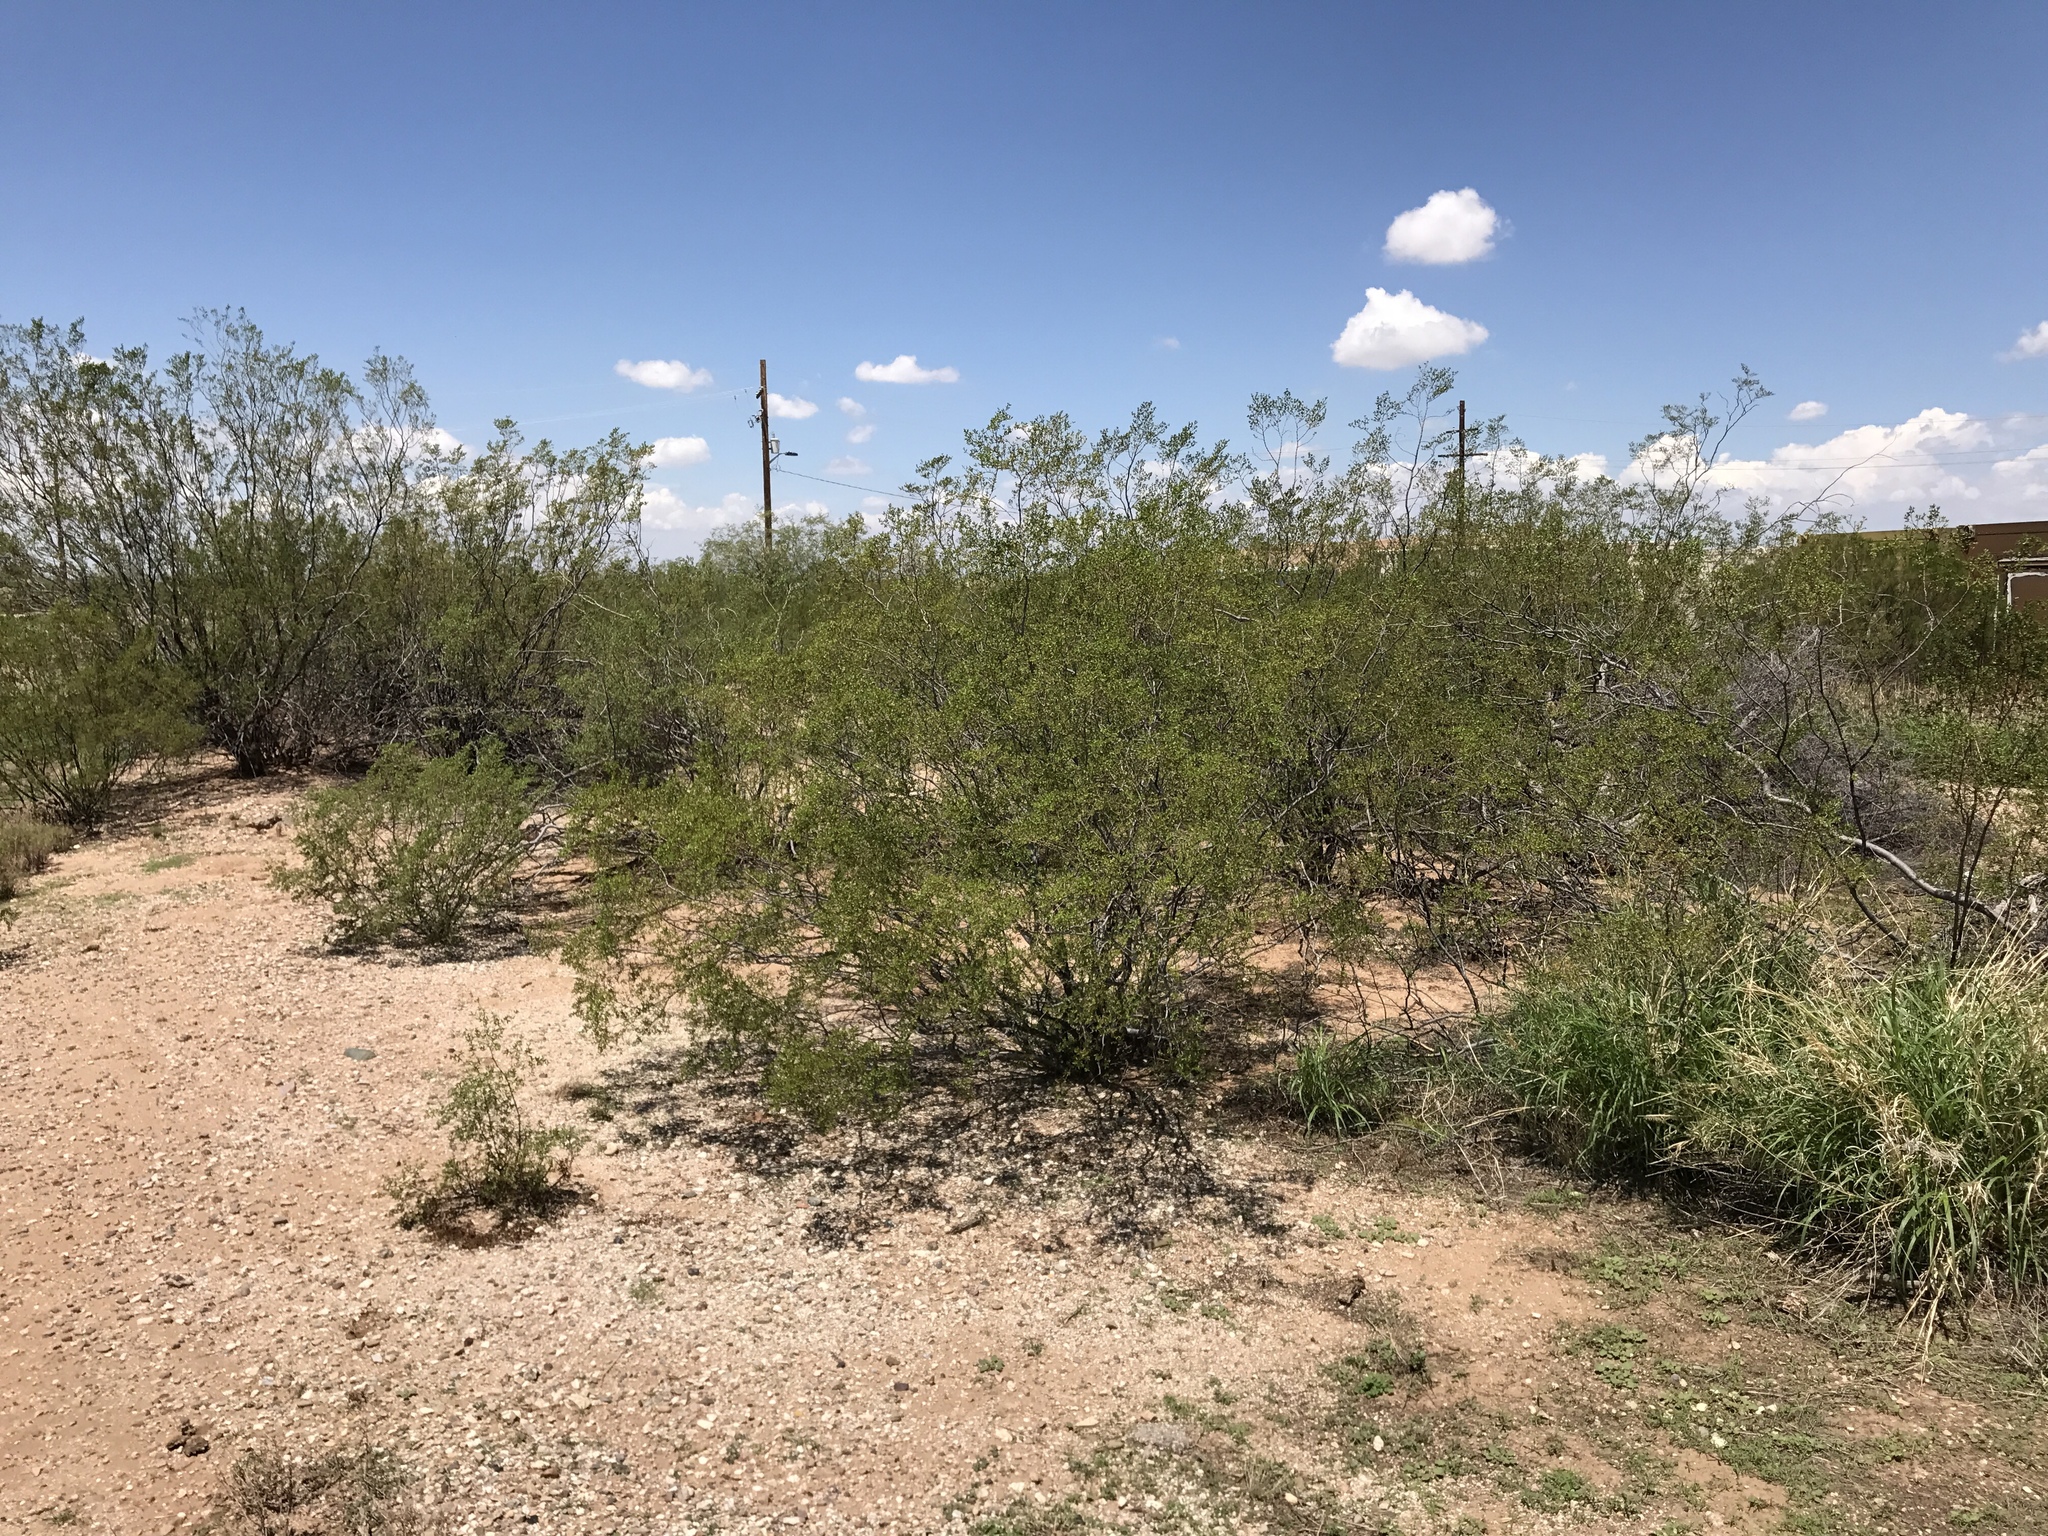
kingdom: Plantae
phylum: Tracheophyta
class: Magnoliopsida
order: Zygophyllales
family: Zygophyllaceae
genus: Larrea
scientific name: Larrea tridentata
